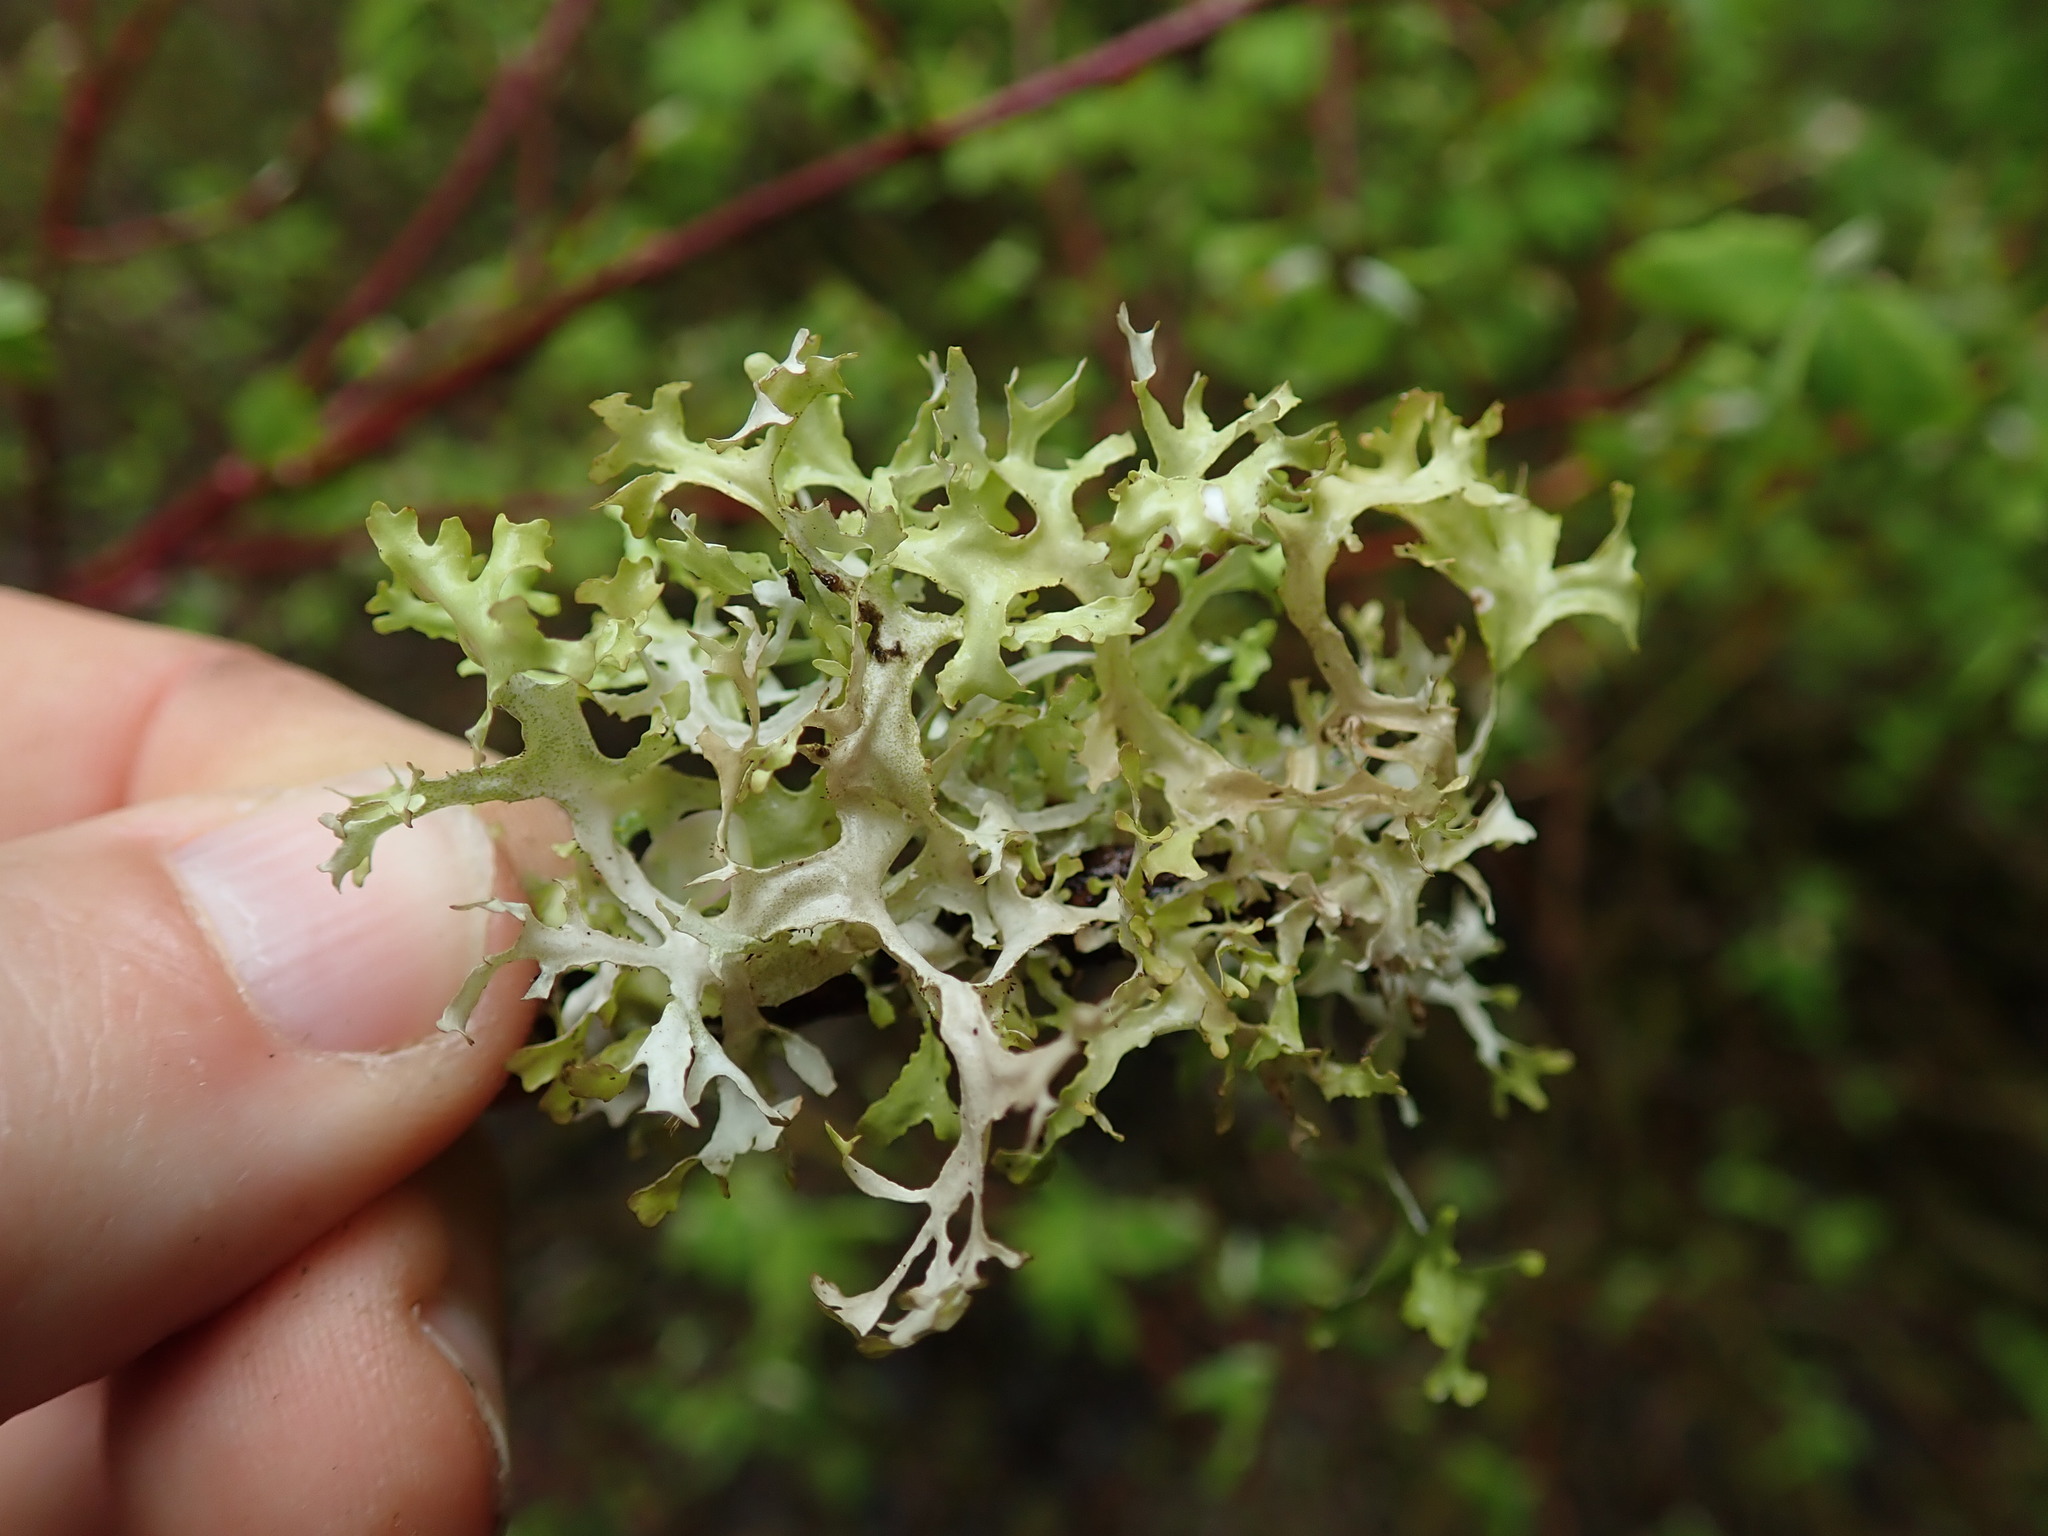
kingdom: Fungi
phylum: Ascomycota
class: Lecanoromycetes
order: Lecanorales
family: Parmeliaceae
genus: Nephromopsis
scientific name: Nephromopsis subalpina
